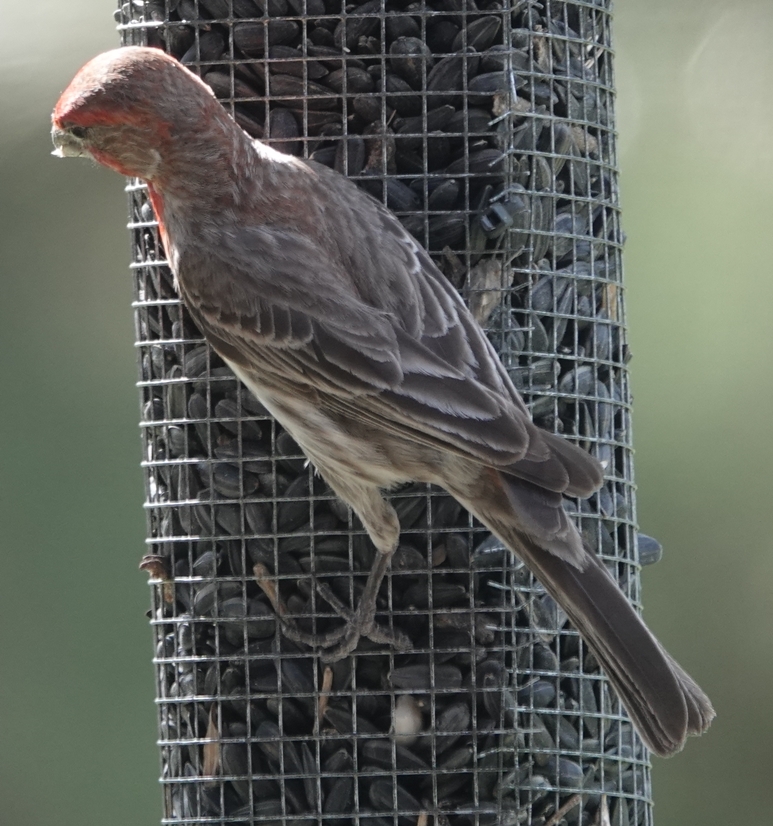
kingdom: Animalia
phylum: Chordata
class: Aves
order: Passeriformes
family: Fringillidae
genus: Haemorhous
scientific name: Haemorhous mexicanus
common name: House finch
